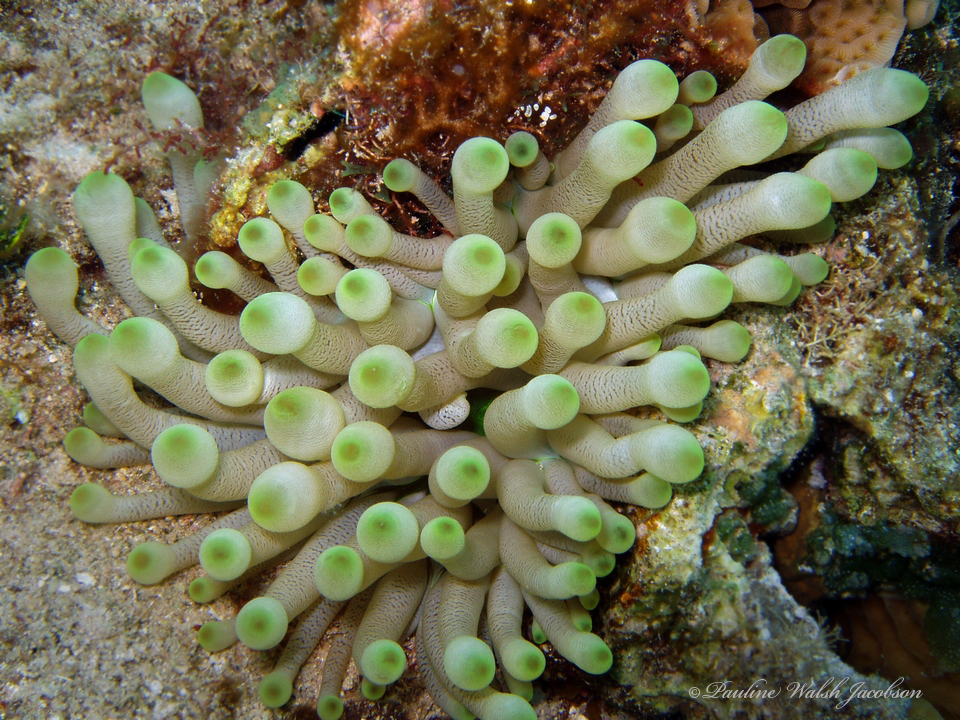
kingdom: Animalia
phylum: Cnidaria
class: Anthozoa
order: Actiniaria
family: Actiniidae
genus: Condylactis
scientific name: Condylactis gigantea
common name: Giant caribbean anemone
